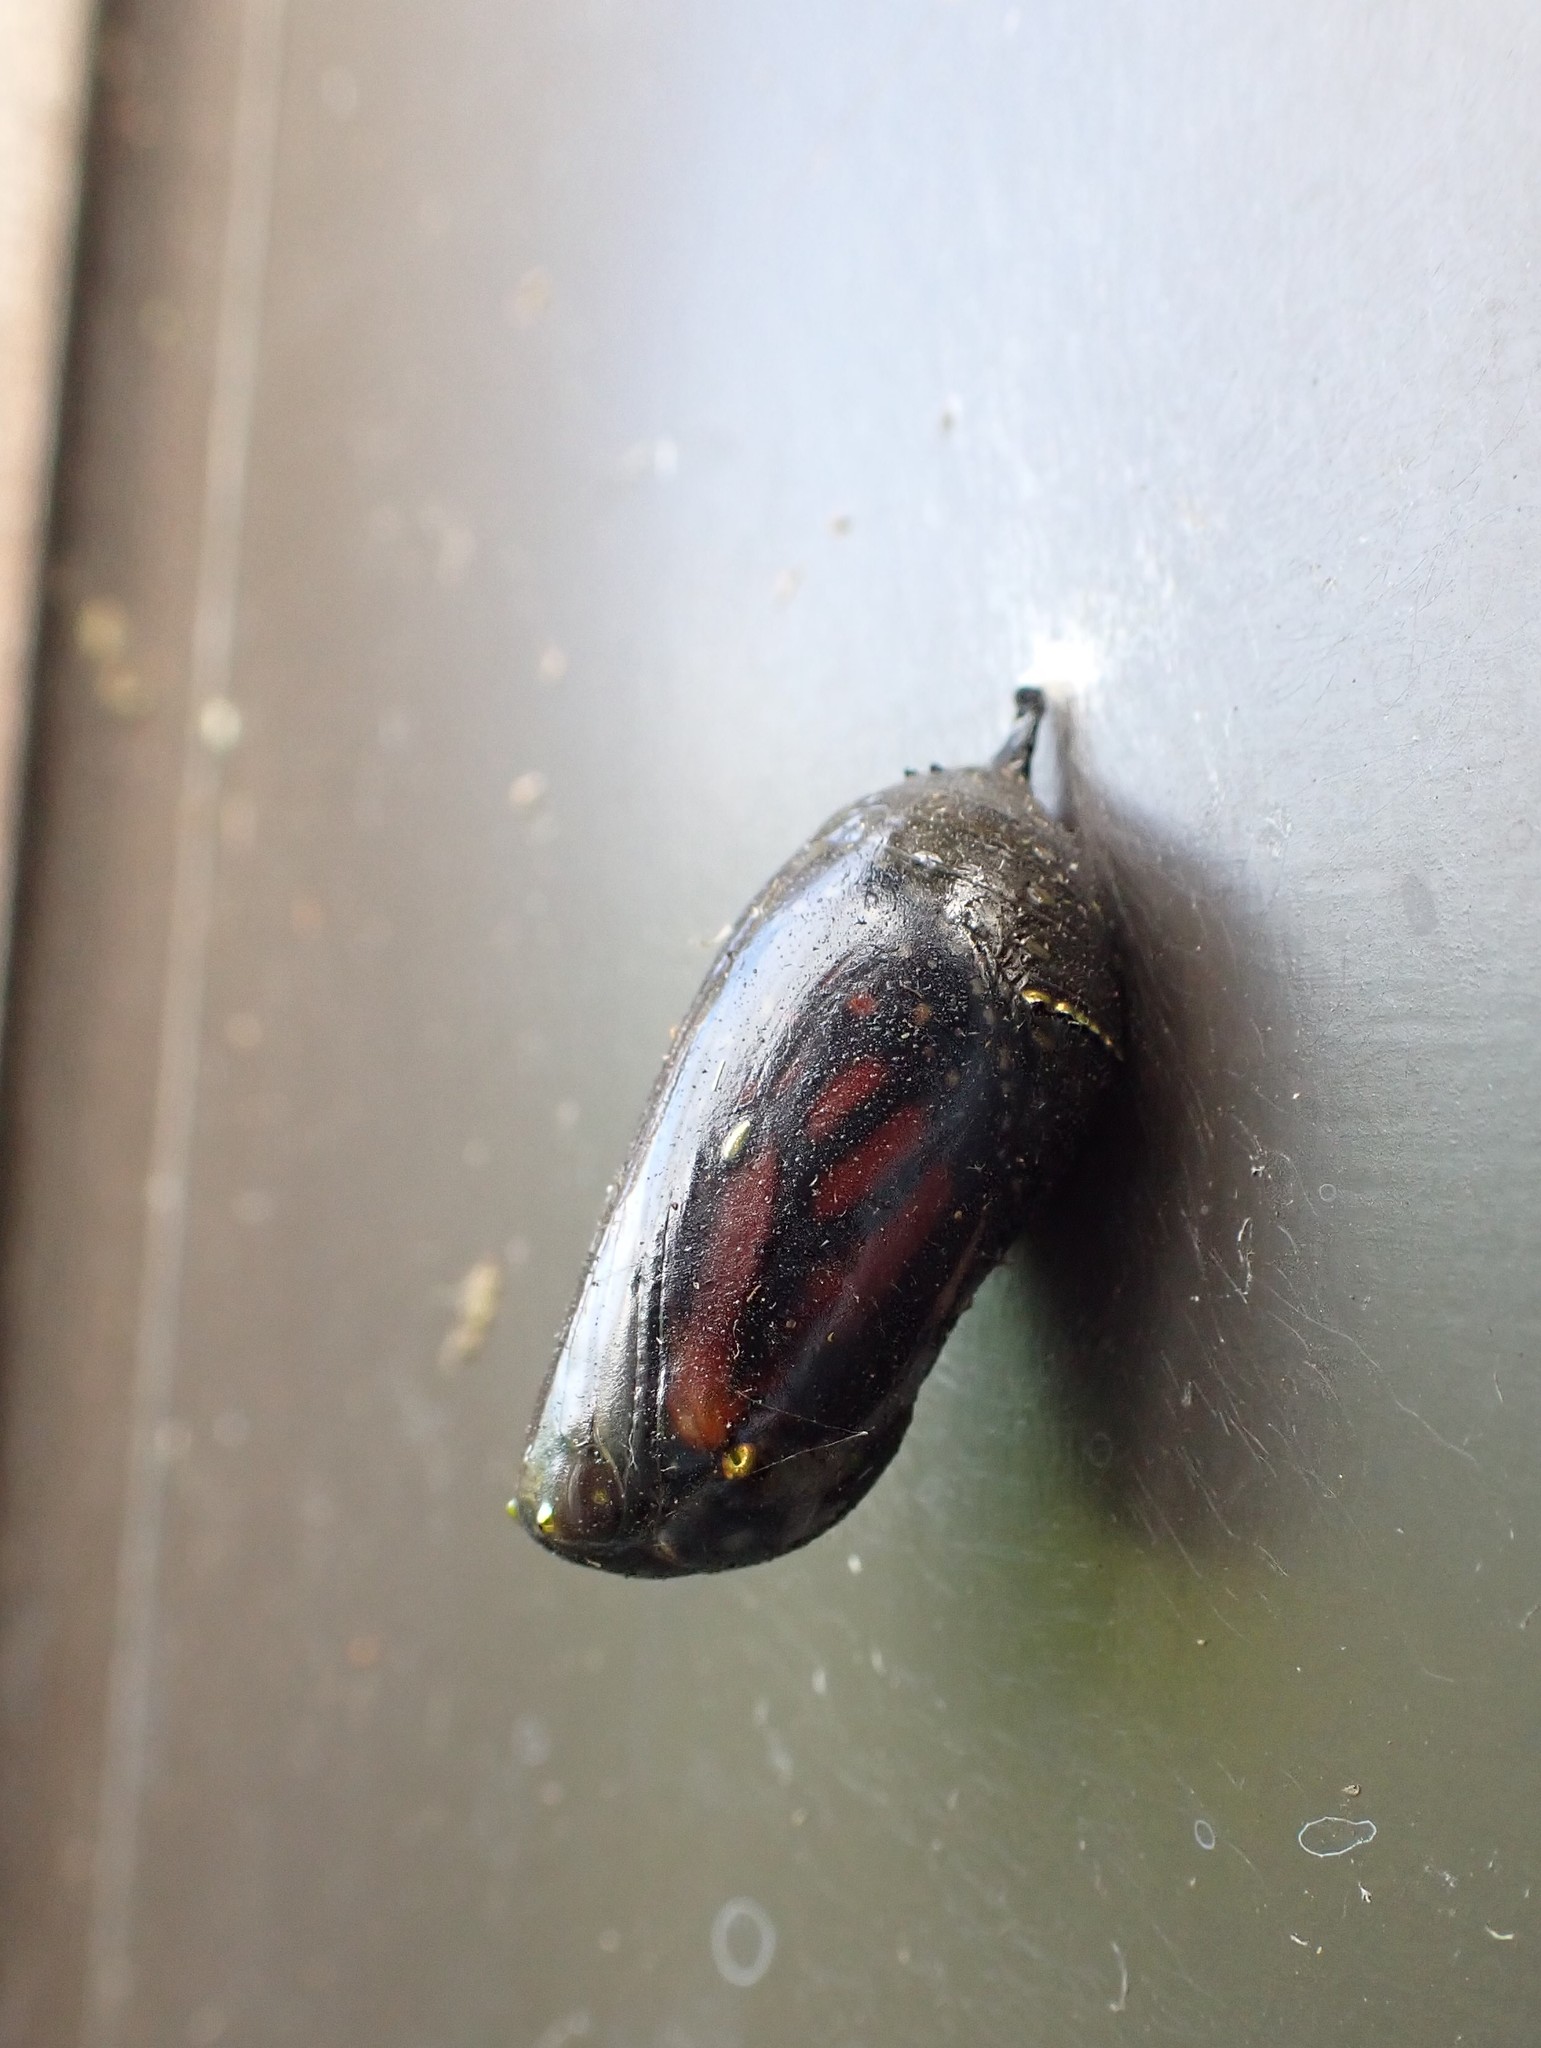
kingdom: Animalia
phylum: Arthropoda
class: Insecta
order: Lepidoptera
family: Nymphalidae
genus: Danaus
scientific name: Danaus plexippus
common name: Monarch
